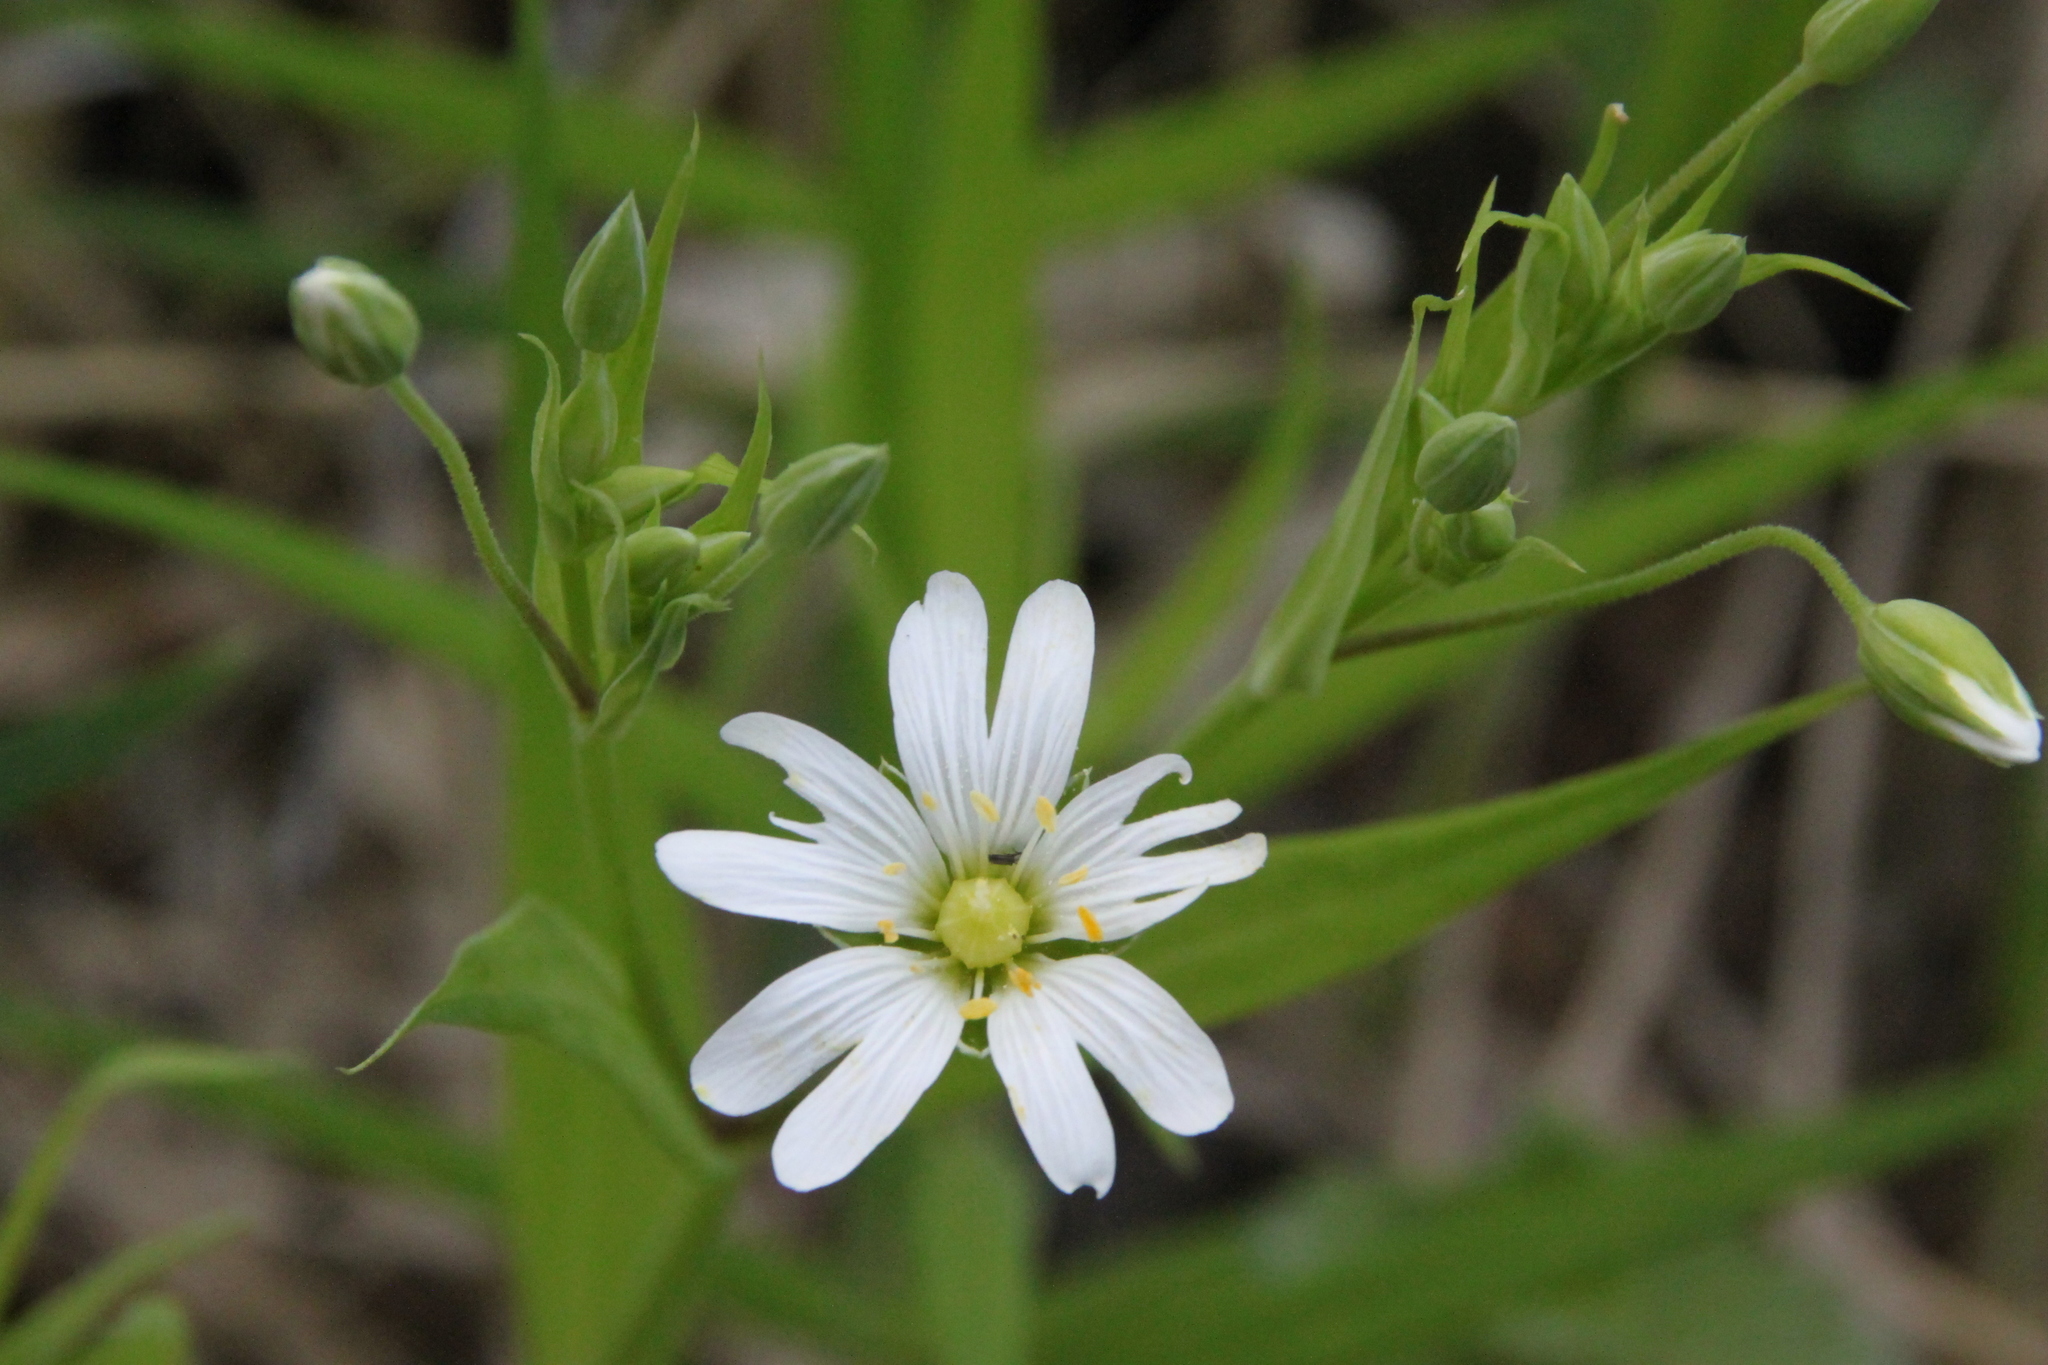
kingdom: Plantae
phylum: Tracheophyta
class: Magnoliopsida
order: Caryophyllales
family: Caryophyllaceae
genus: Rabelera
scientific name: Rabelera holostea
